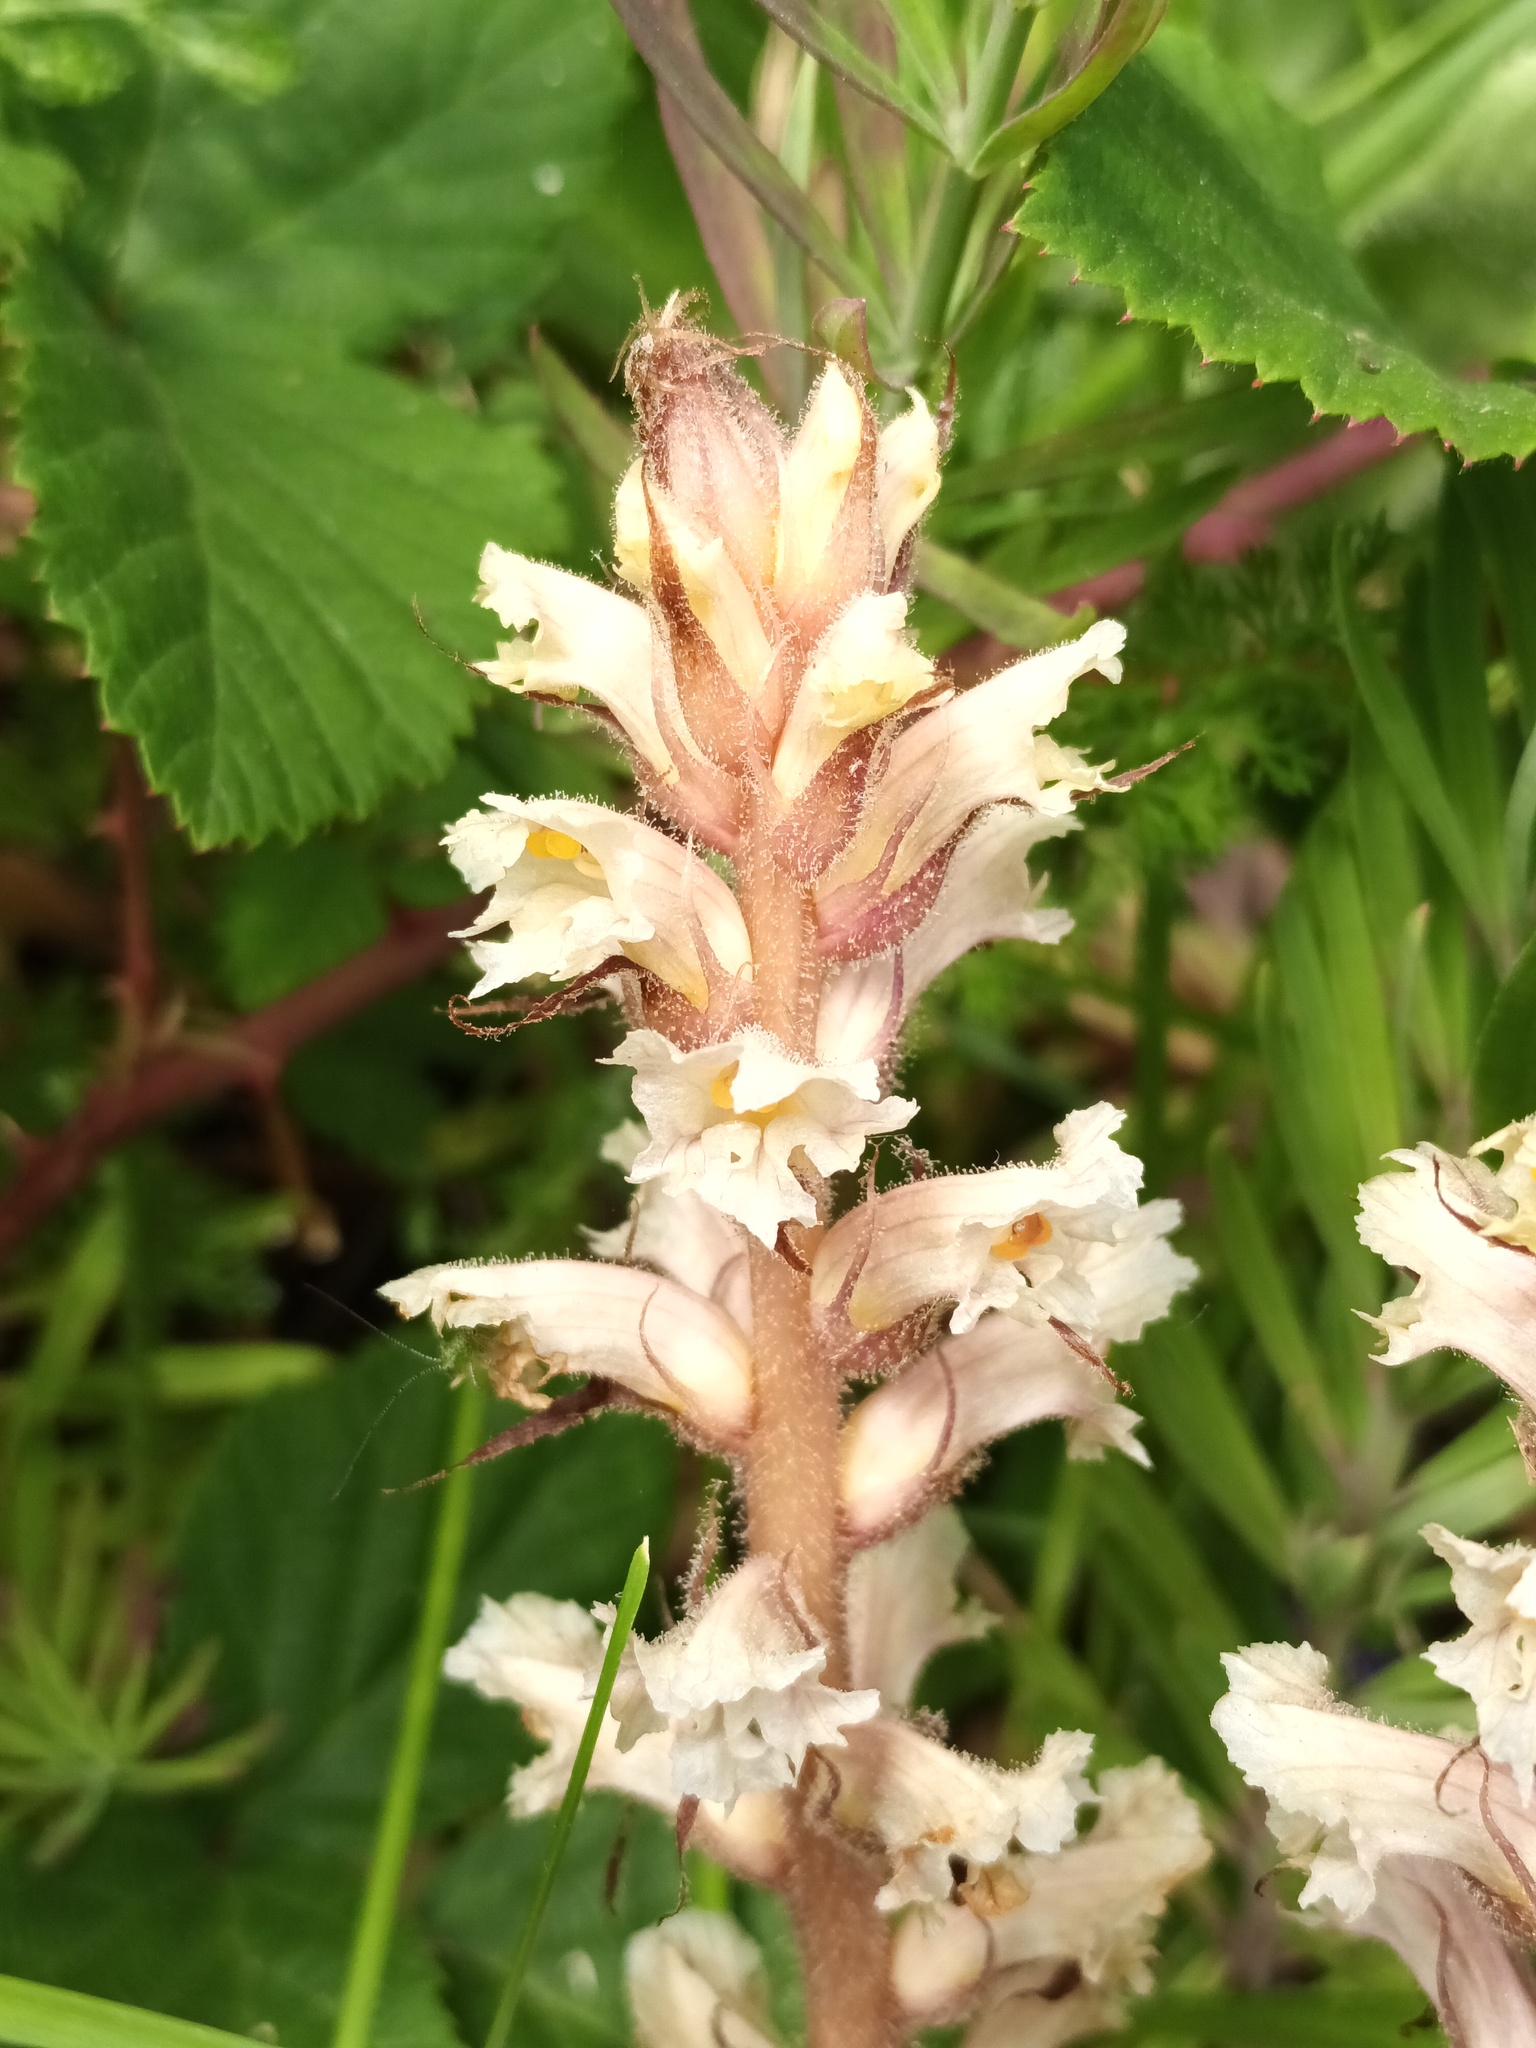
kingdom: Plantae
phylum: Tracheophyta
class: Magnoliopsida
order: Lamiales
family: Orobanchaceae
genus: Orobanche
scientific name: Orobanche hederae
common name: Ivy broomrape
